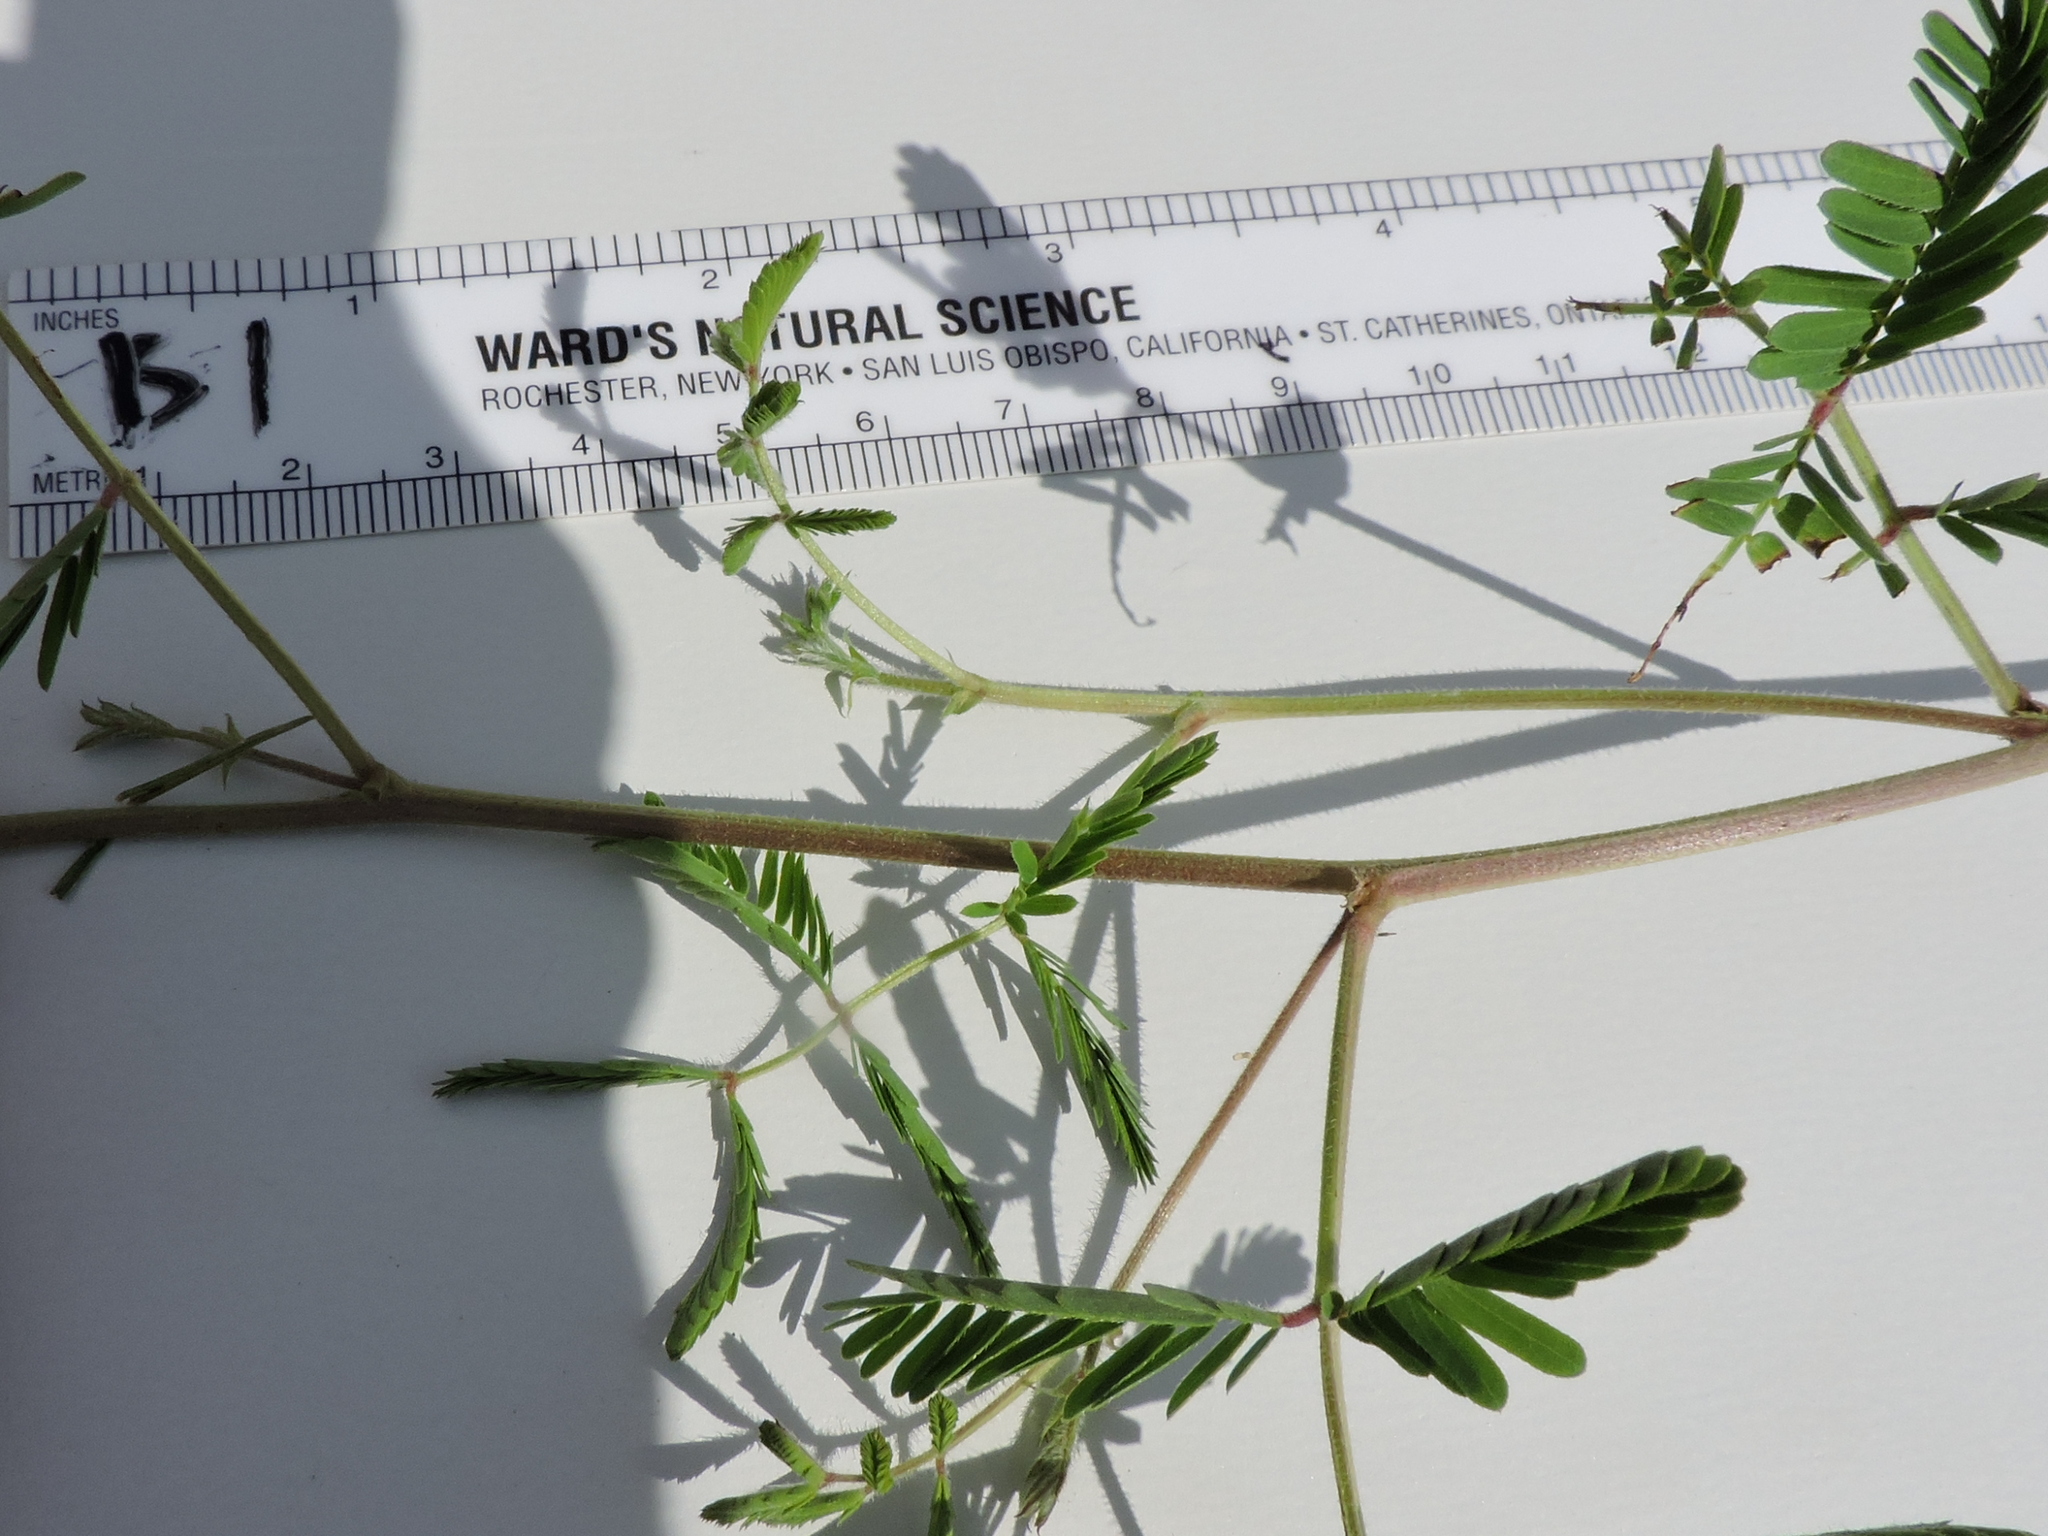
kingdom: Plantae
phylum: Tracheophyta
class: Magnoliopsida
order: Fabales
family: Fabaceae
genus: Mimosa
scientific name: Mimosa strigillosa
